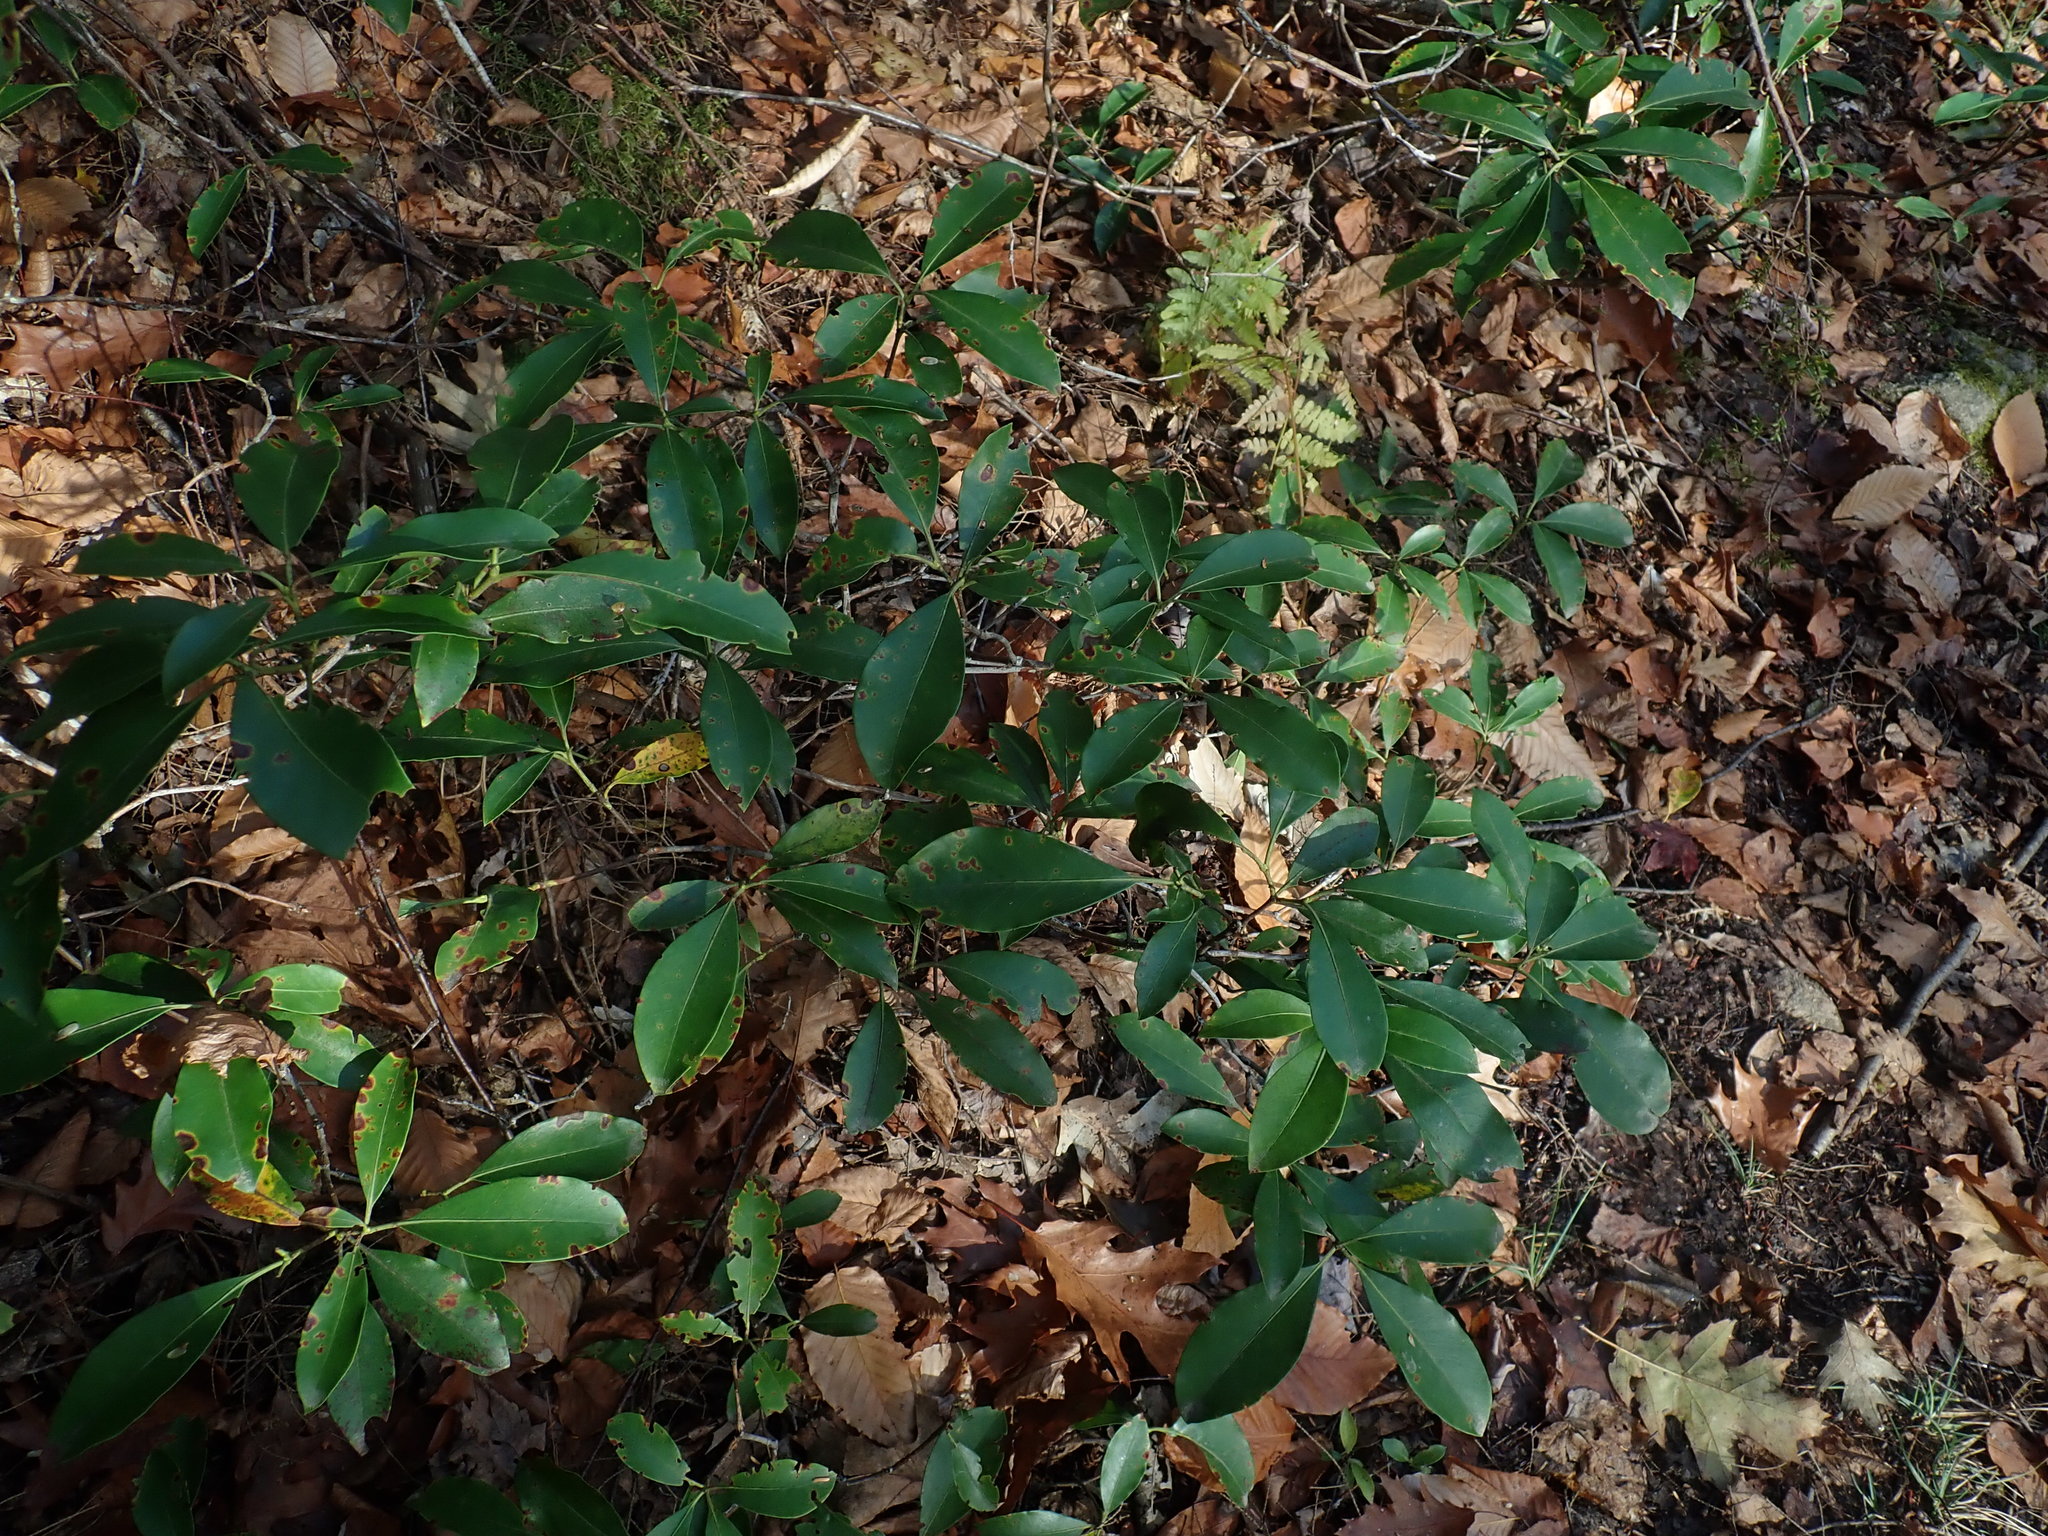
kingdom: Plantae
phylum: Tracheophyta
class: Magnoliopsida
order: Ericales
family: Ericaceae
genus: Kalmia
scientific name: Kalmia latifolia
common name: Mountain-laurel
